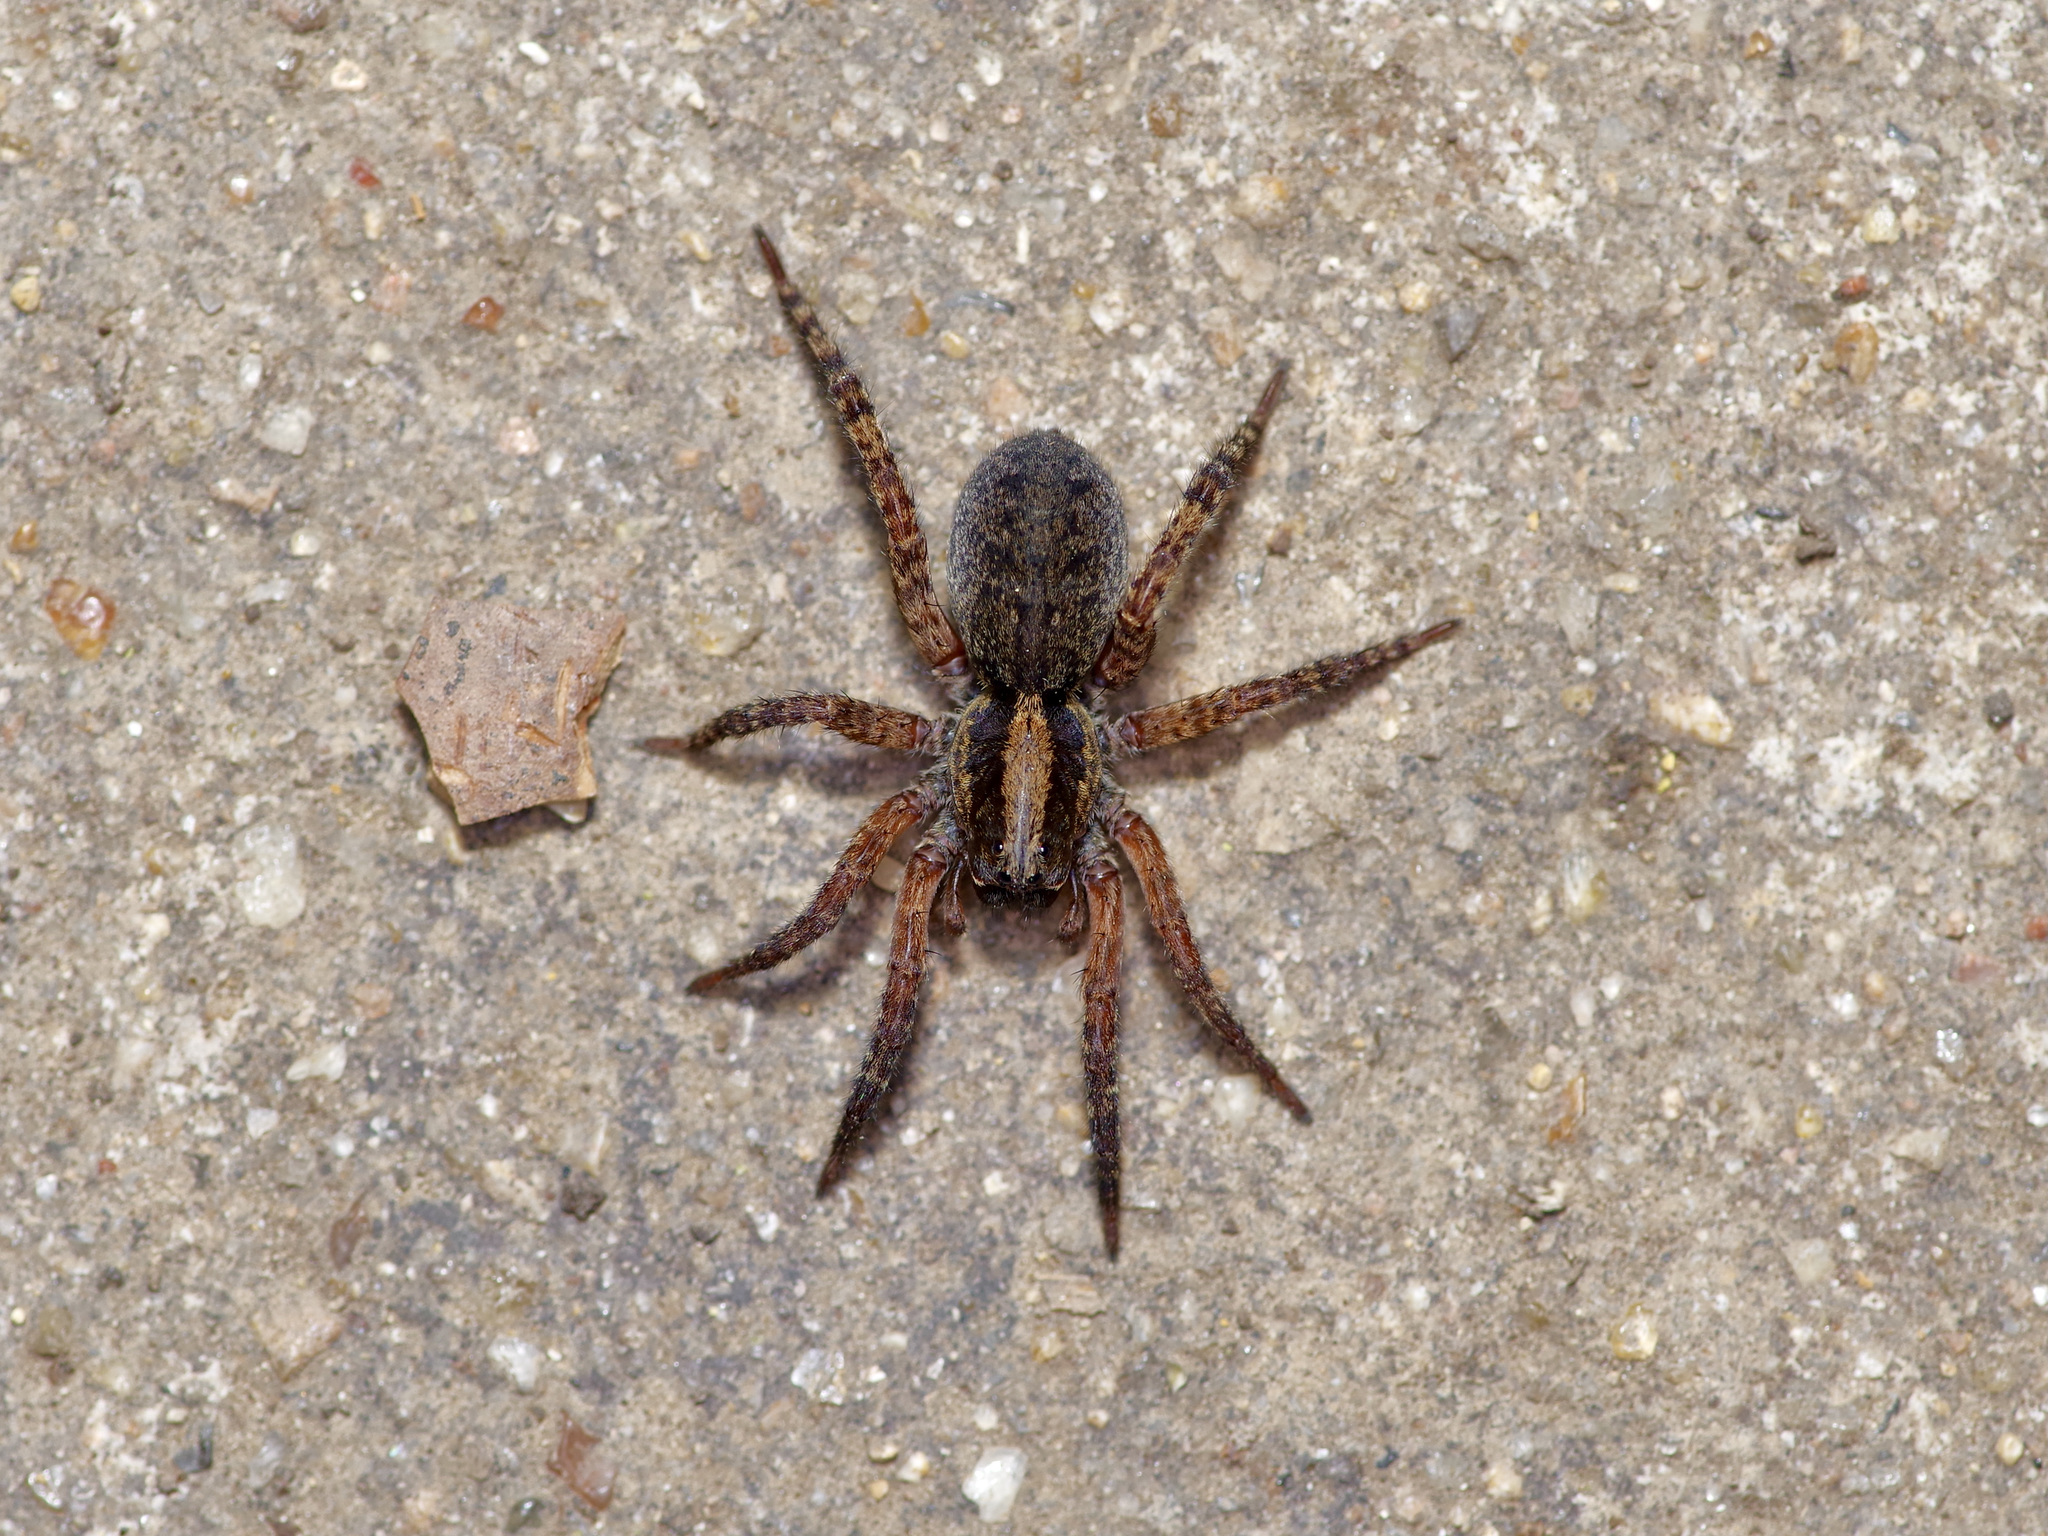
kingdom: Animalia
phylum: Arthropoda
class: Arachnida
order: Araneae
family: Lycosidae
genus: Trochosa
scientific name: Trochosa sepulchralis
